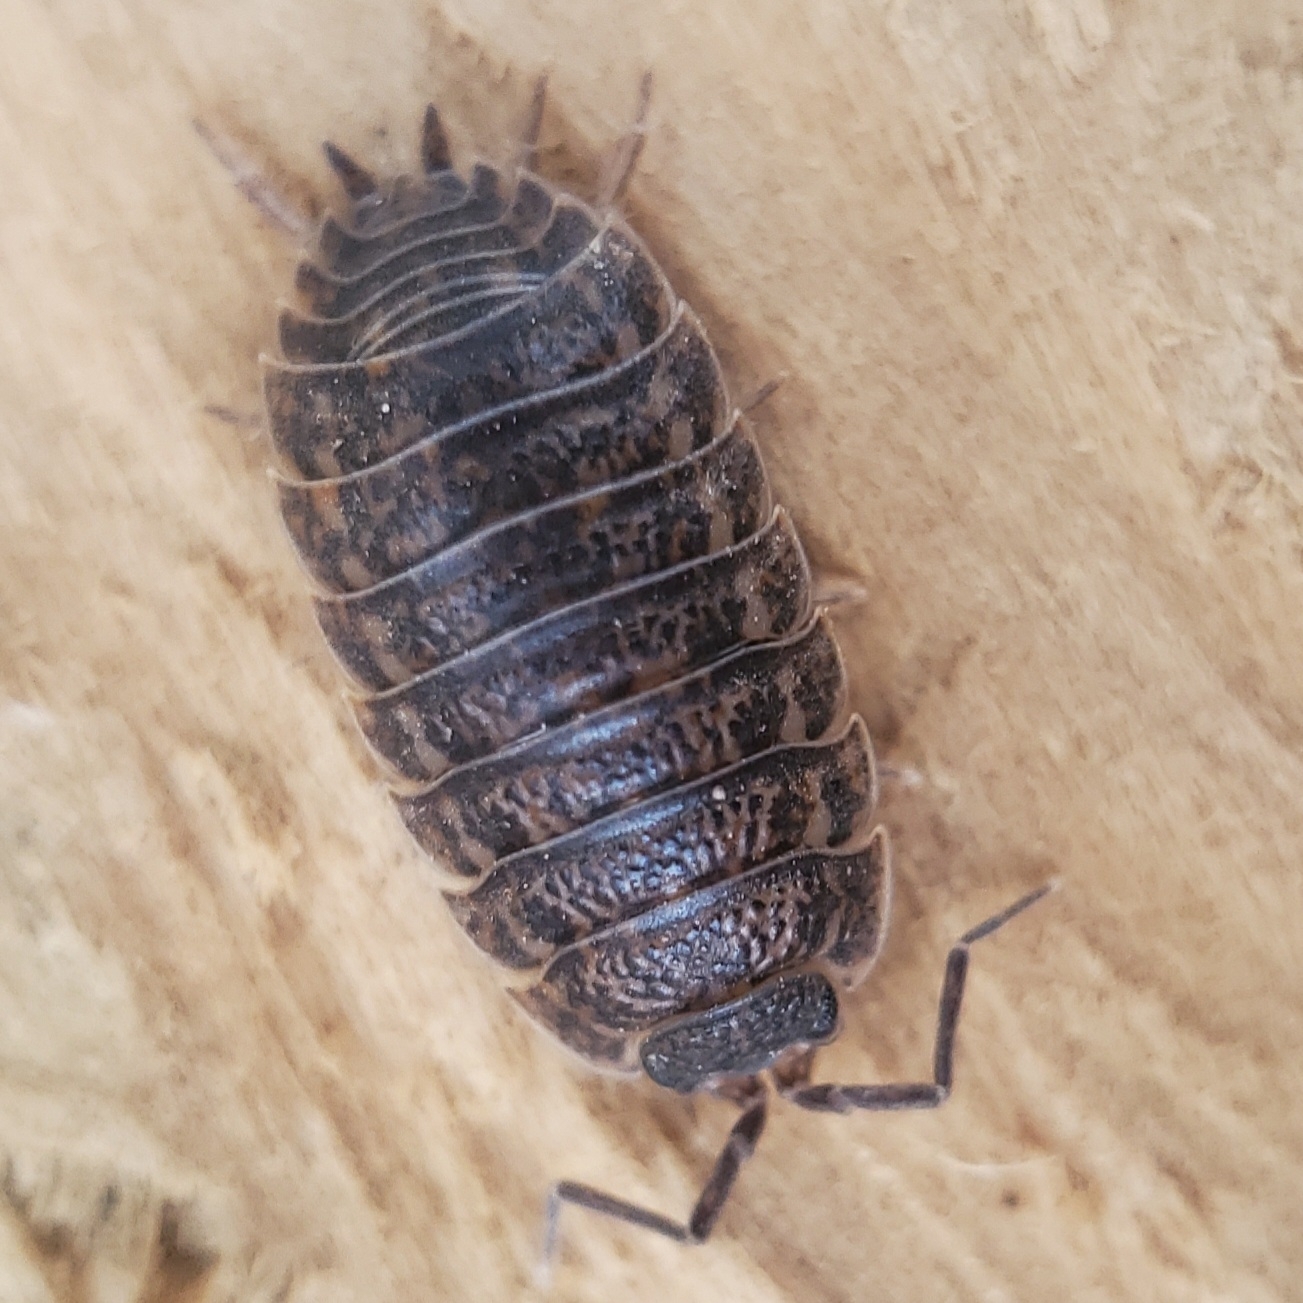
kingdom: Animalia
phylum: Arthropoda
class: Malacostraca
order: Isopoda
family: Trachelipodidae
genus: Trachelipus
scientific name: Trachelipus rathkii
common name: Isopod
